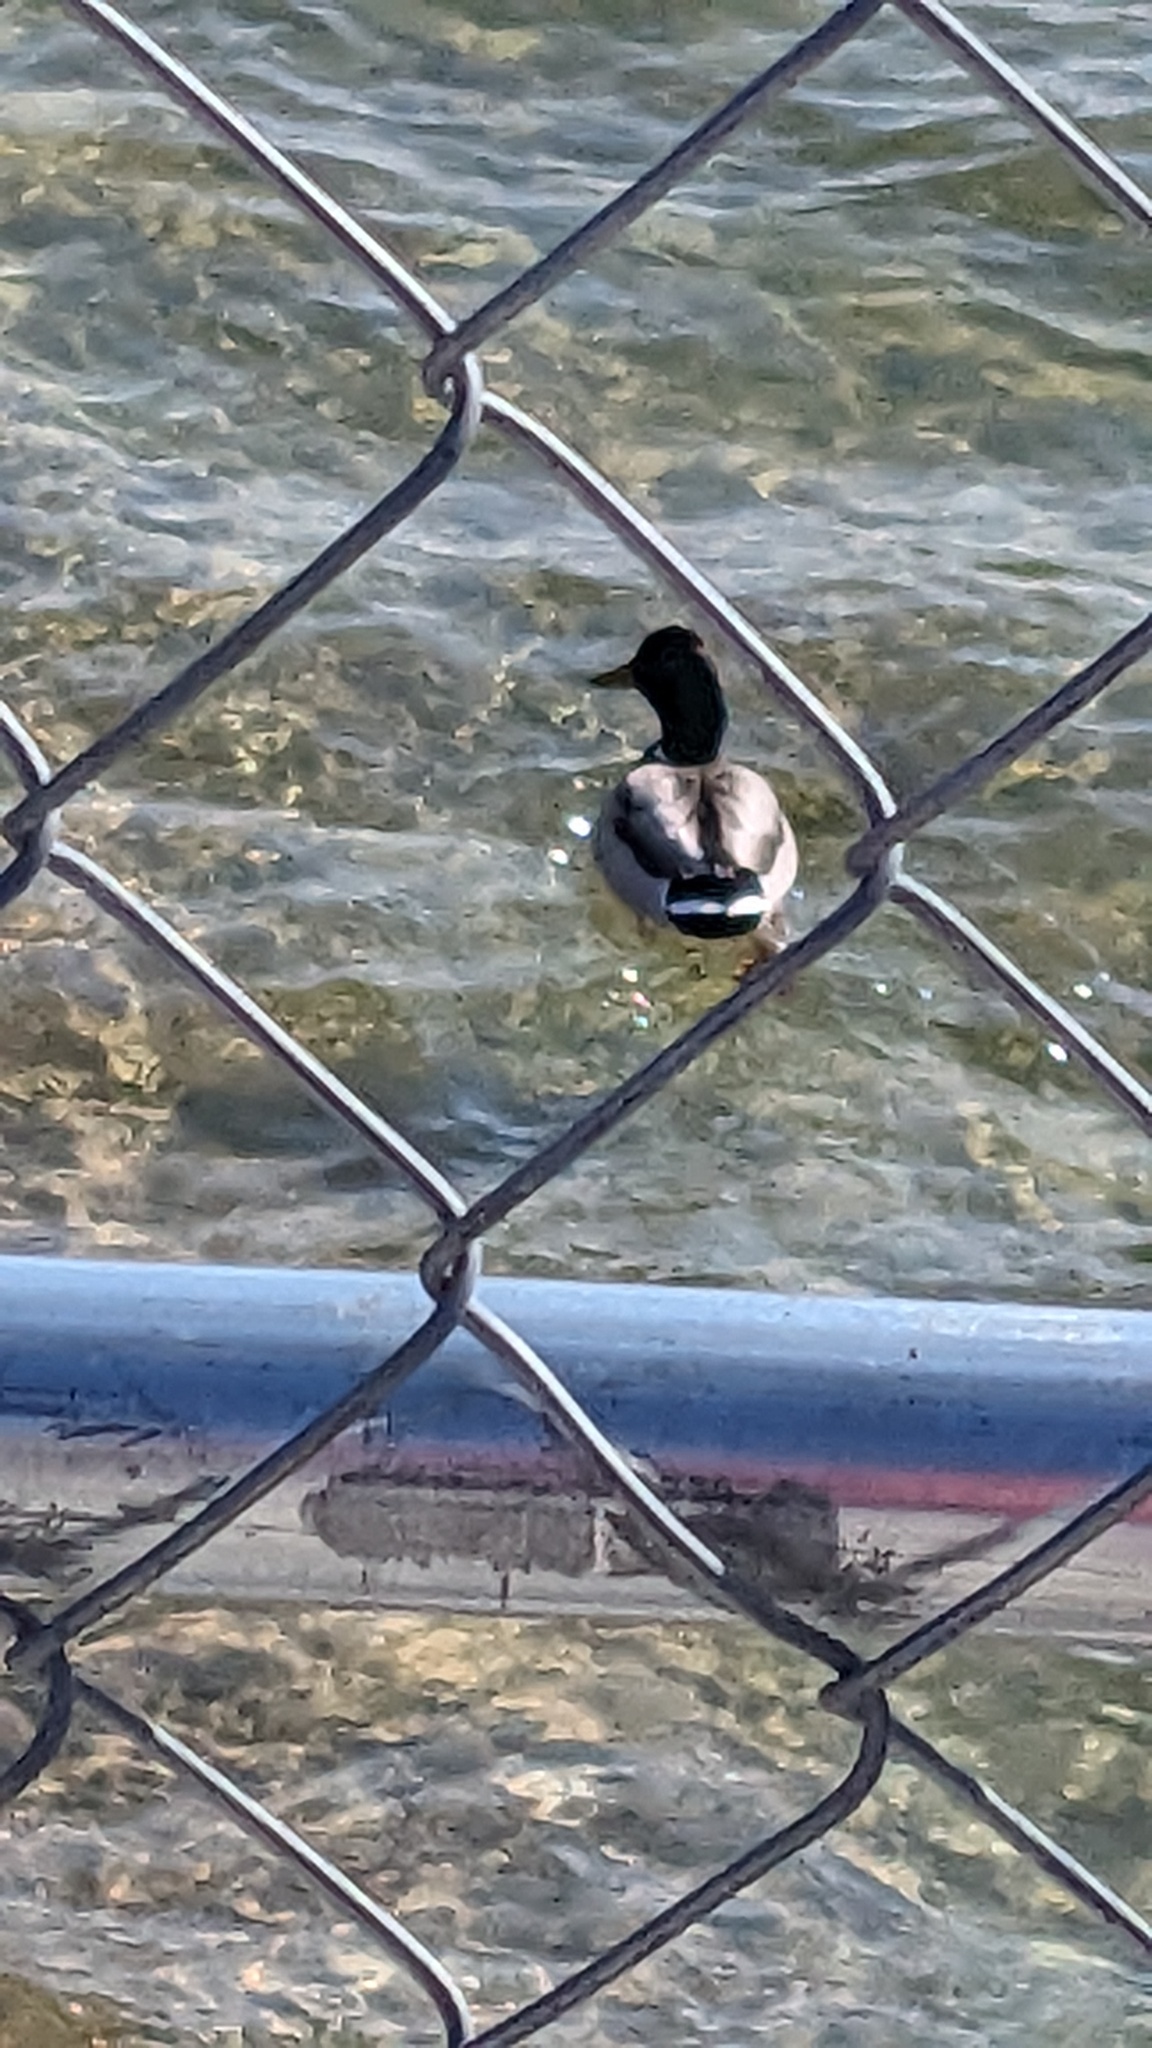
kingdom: Animalia
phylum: Chordata
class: Aves
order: Anseriformes
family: Anatidae
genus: Anas
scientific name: Anas platyrhynchos
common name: Mallard
